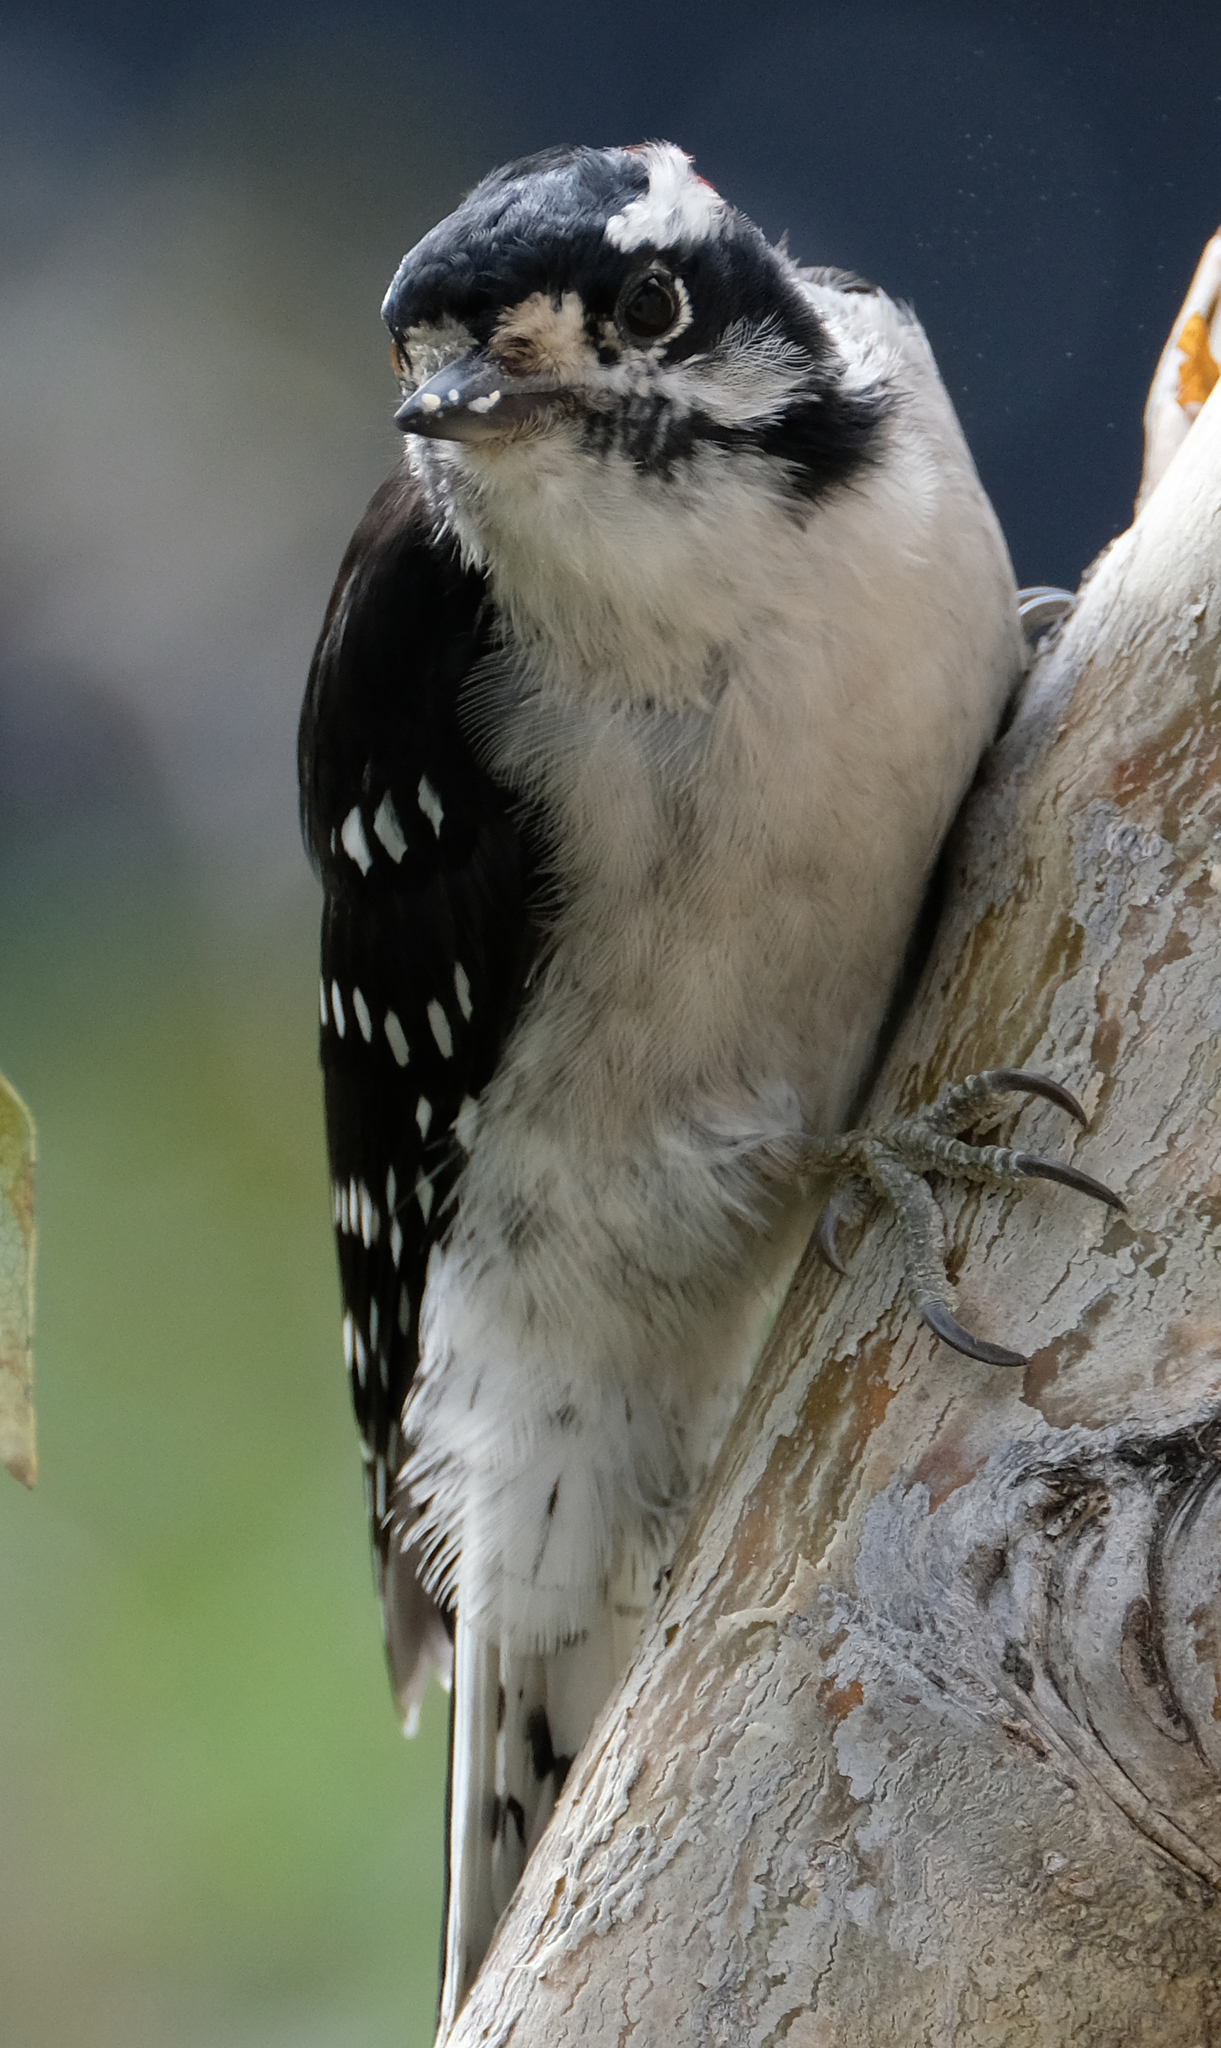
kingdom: Animalia
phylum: Chordata
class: Aves
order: Piciformes
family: Picidae
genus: Dryobates
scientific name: Dryobates pubescens
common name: Downy woodpecker
